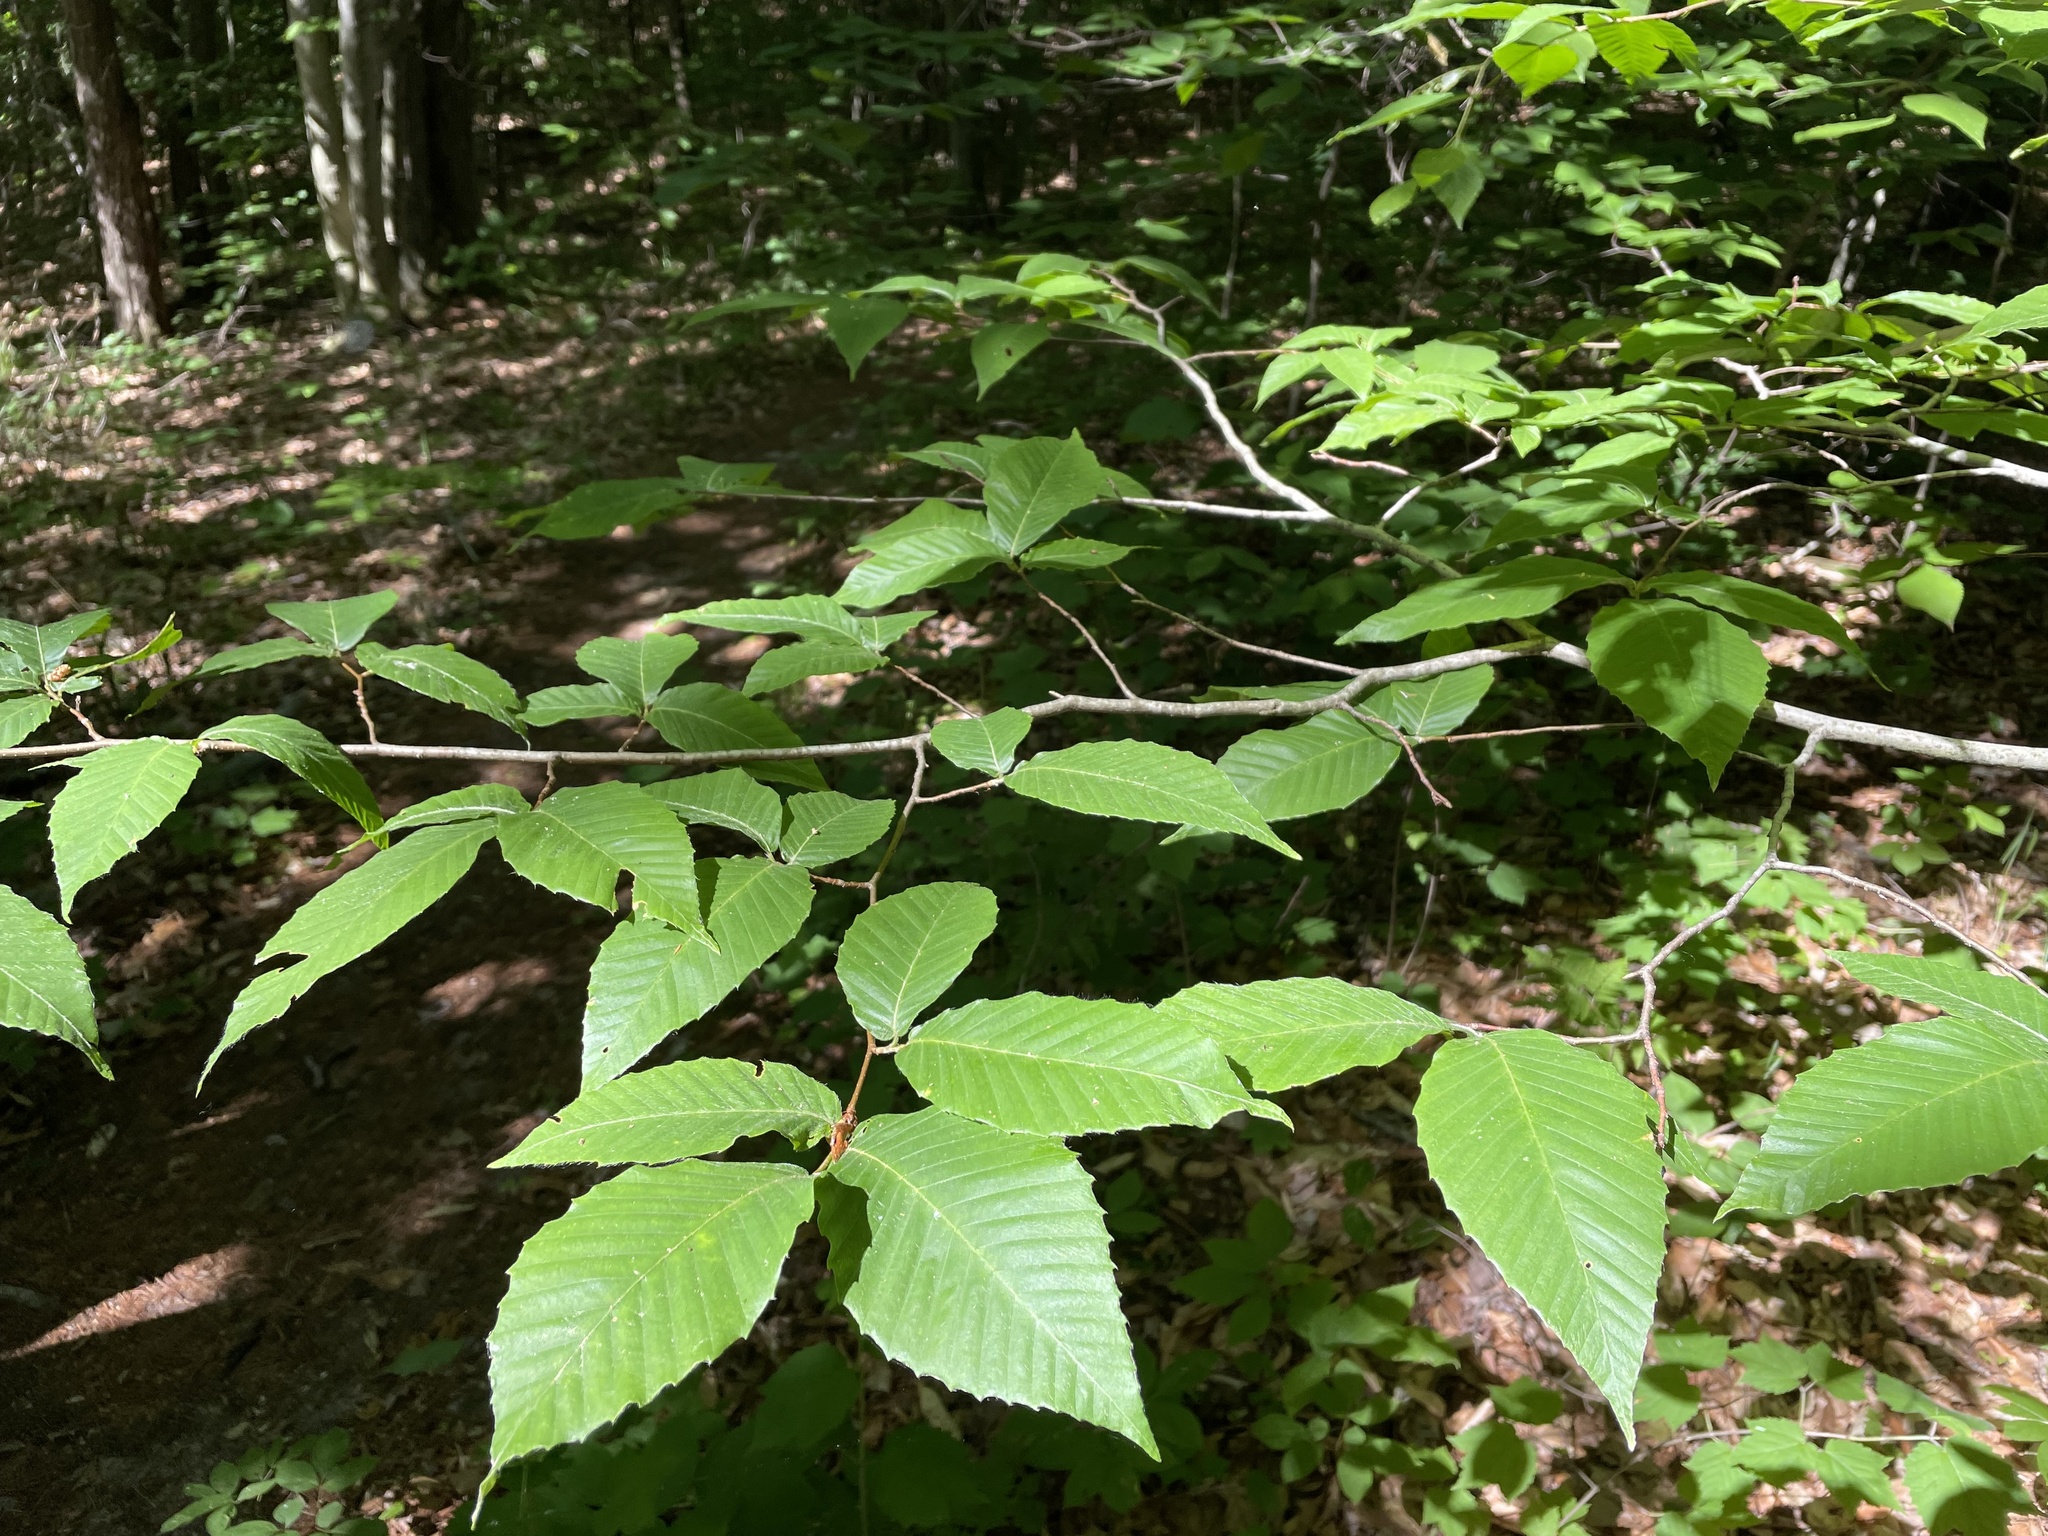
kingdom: Plantae
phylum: Tracheophyta
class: Magnoliopsida
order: Fagales
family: Fagaceae
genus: Fagus
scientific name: Fagus grandifolia
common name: American beech
